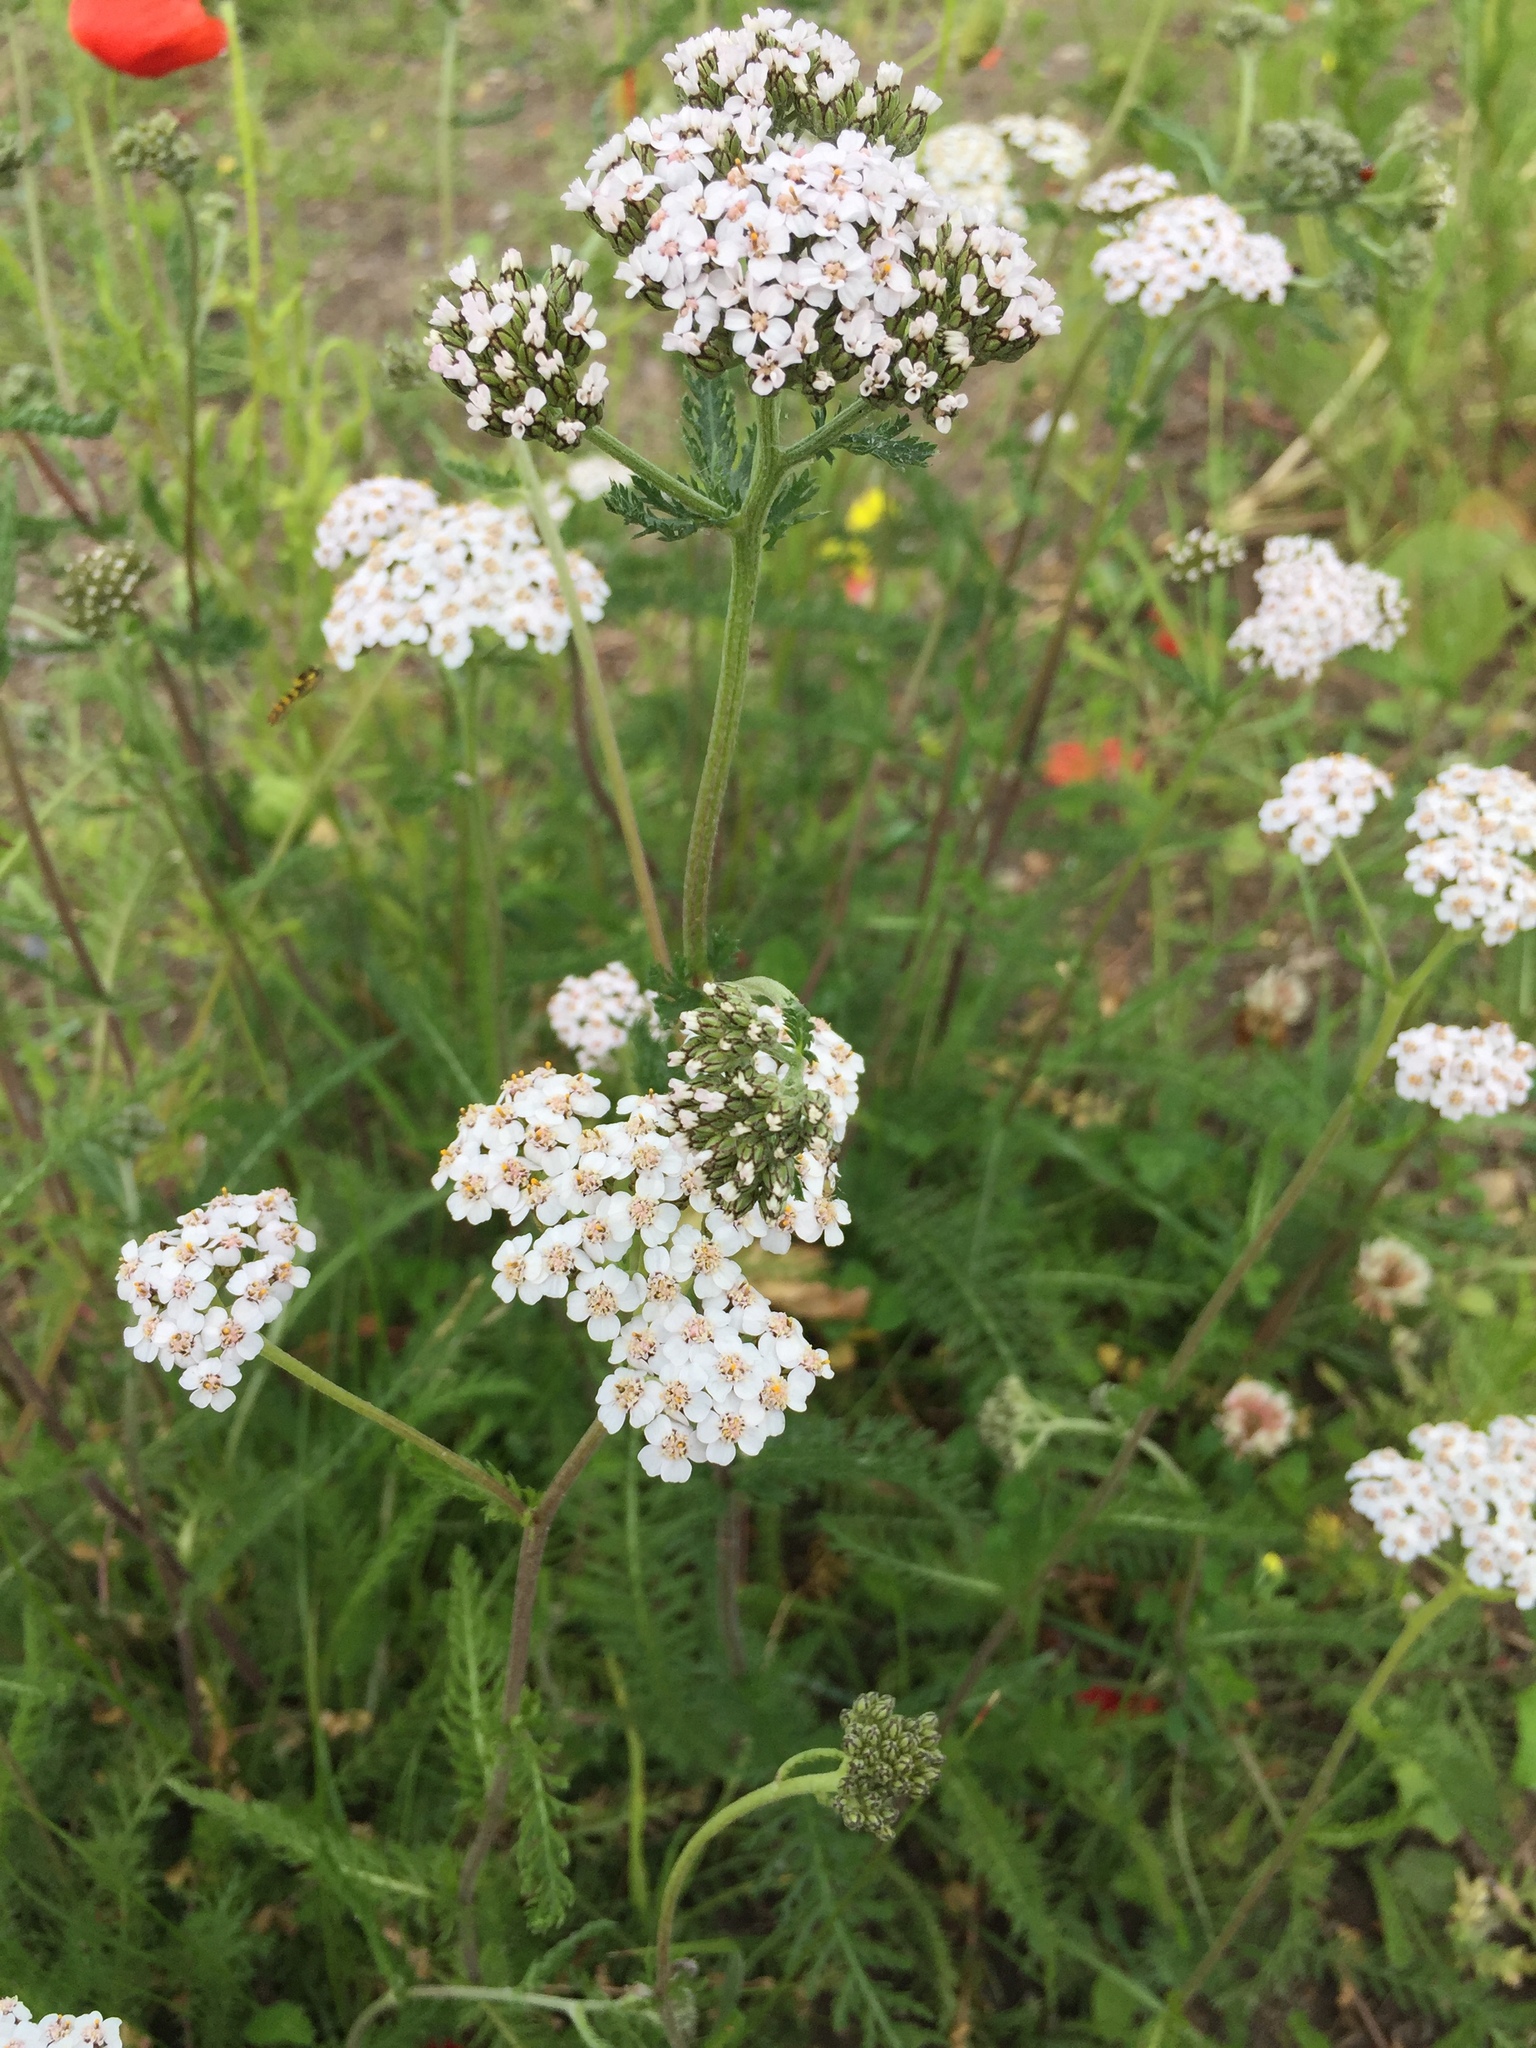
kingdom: Plantae
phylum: Tracheophyta
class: Magnoliopsida
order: Asterales
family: Asteraceae
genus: Achillea
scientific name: Achillea millefolium
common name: Yarrow
